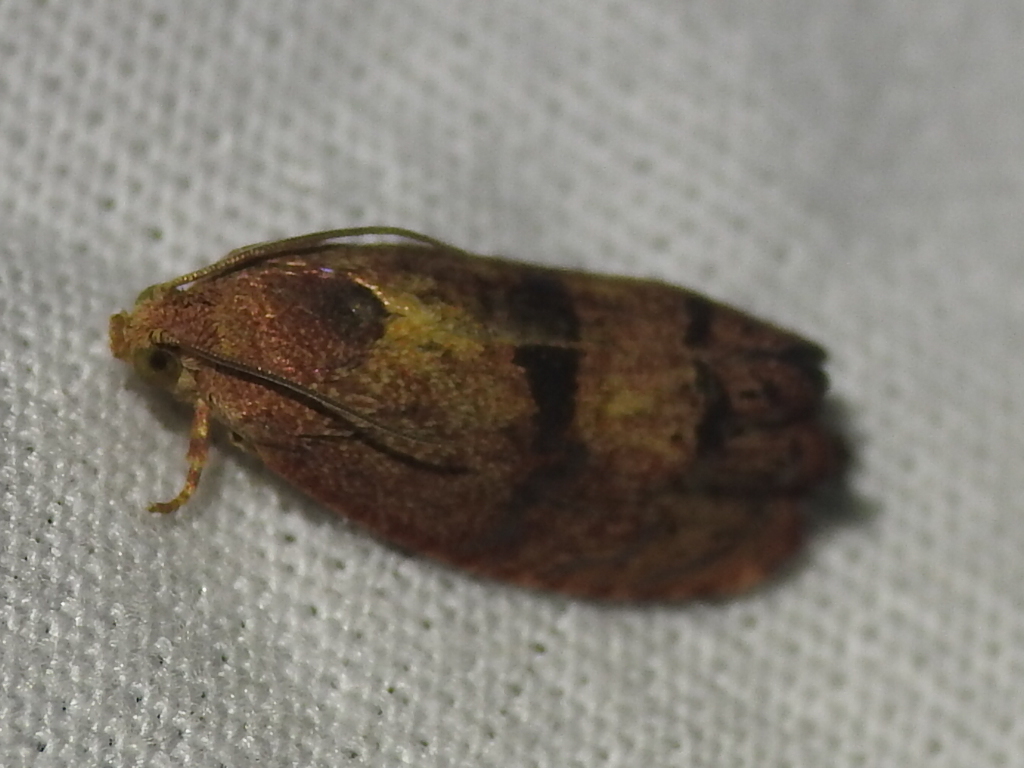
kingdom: Animalia
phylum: Arthropoda
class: Insecta
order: Lepidoptera
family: Tortricidae
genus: Cydia
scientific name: Cydia latiferreana
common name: Filbertworm moth
